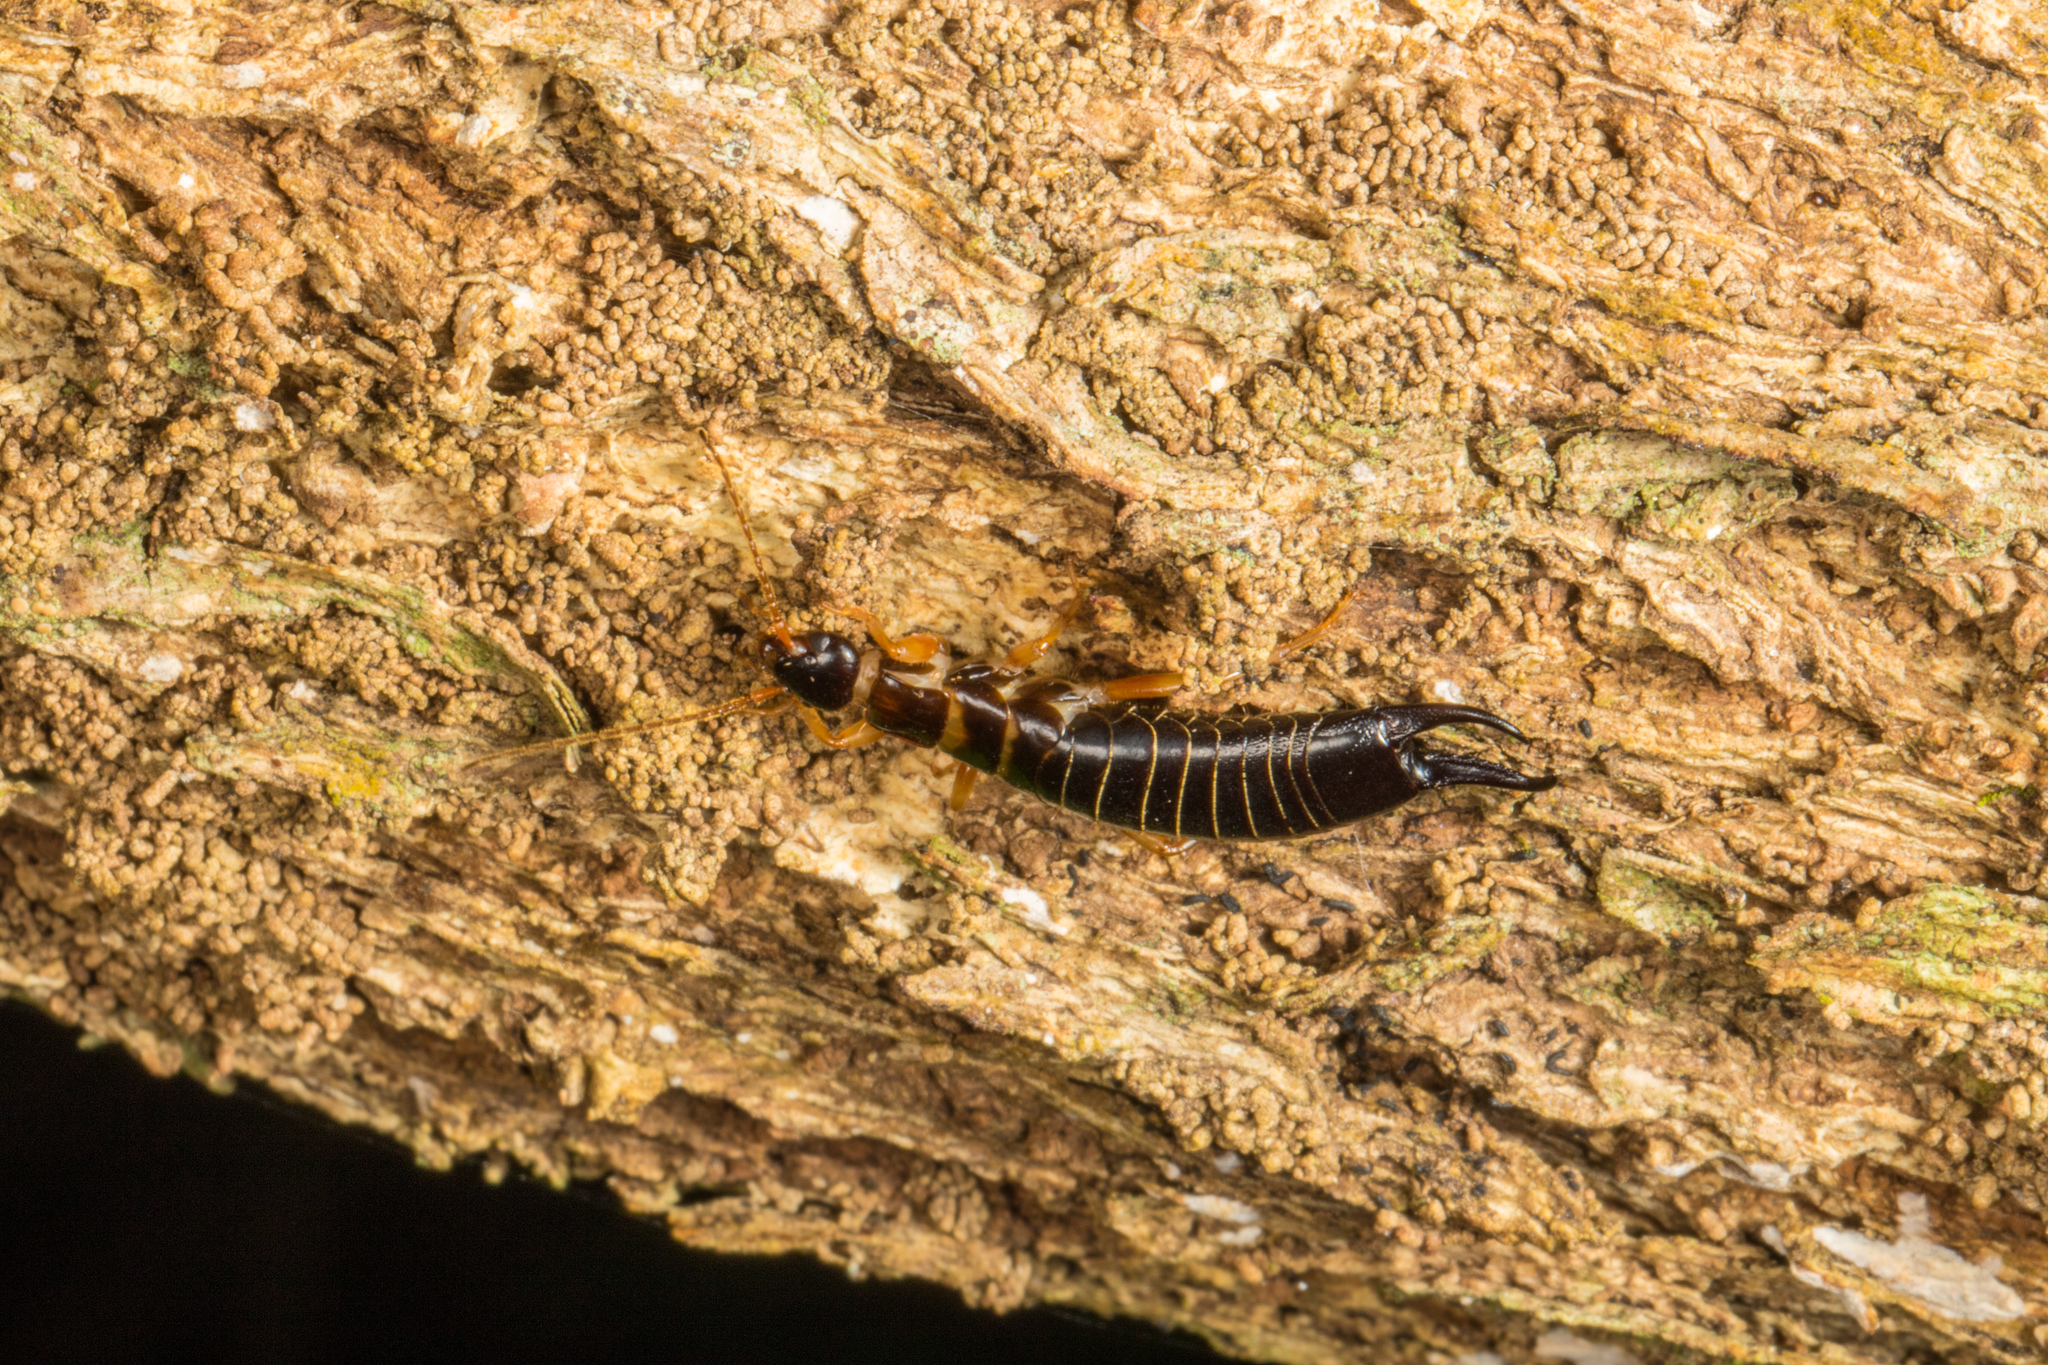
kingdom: Animalia
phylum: Arthropoda
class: Insecta
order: Dermaptera
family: Anisolabididae
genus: Anisolabis
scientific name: Anisolabis littorea
